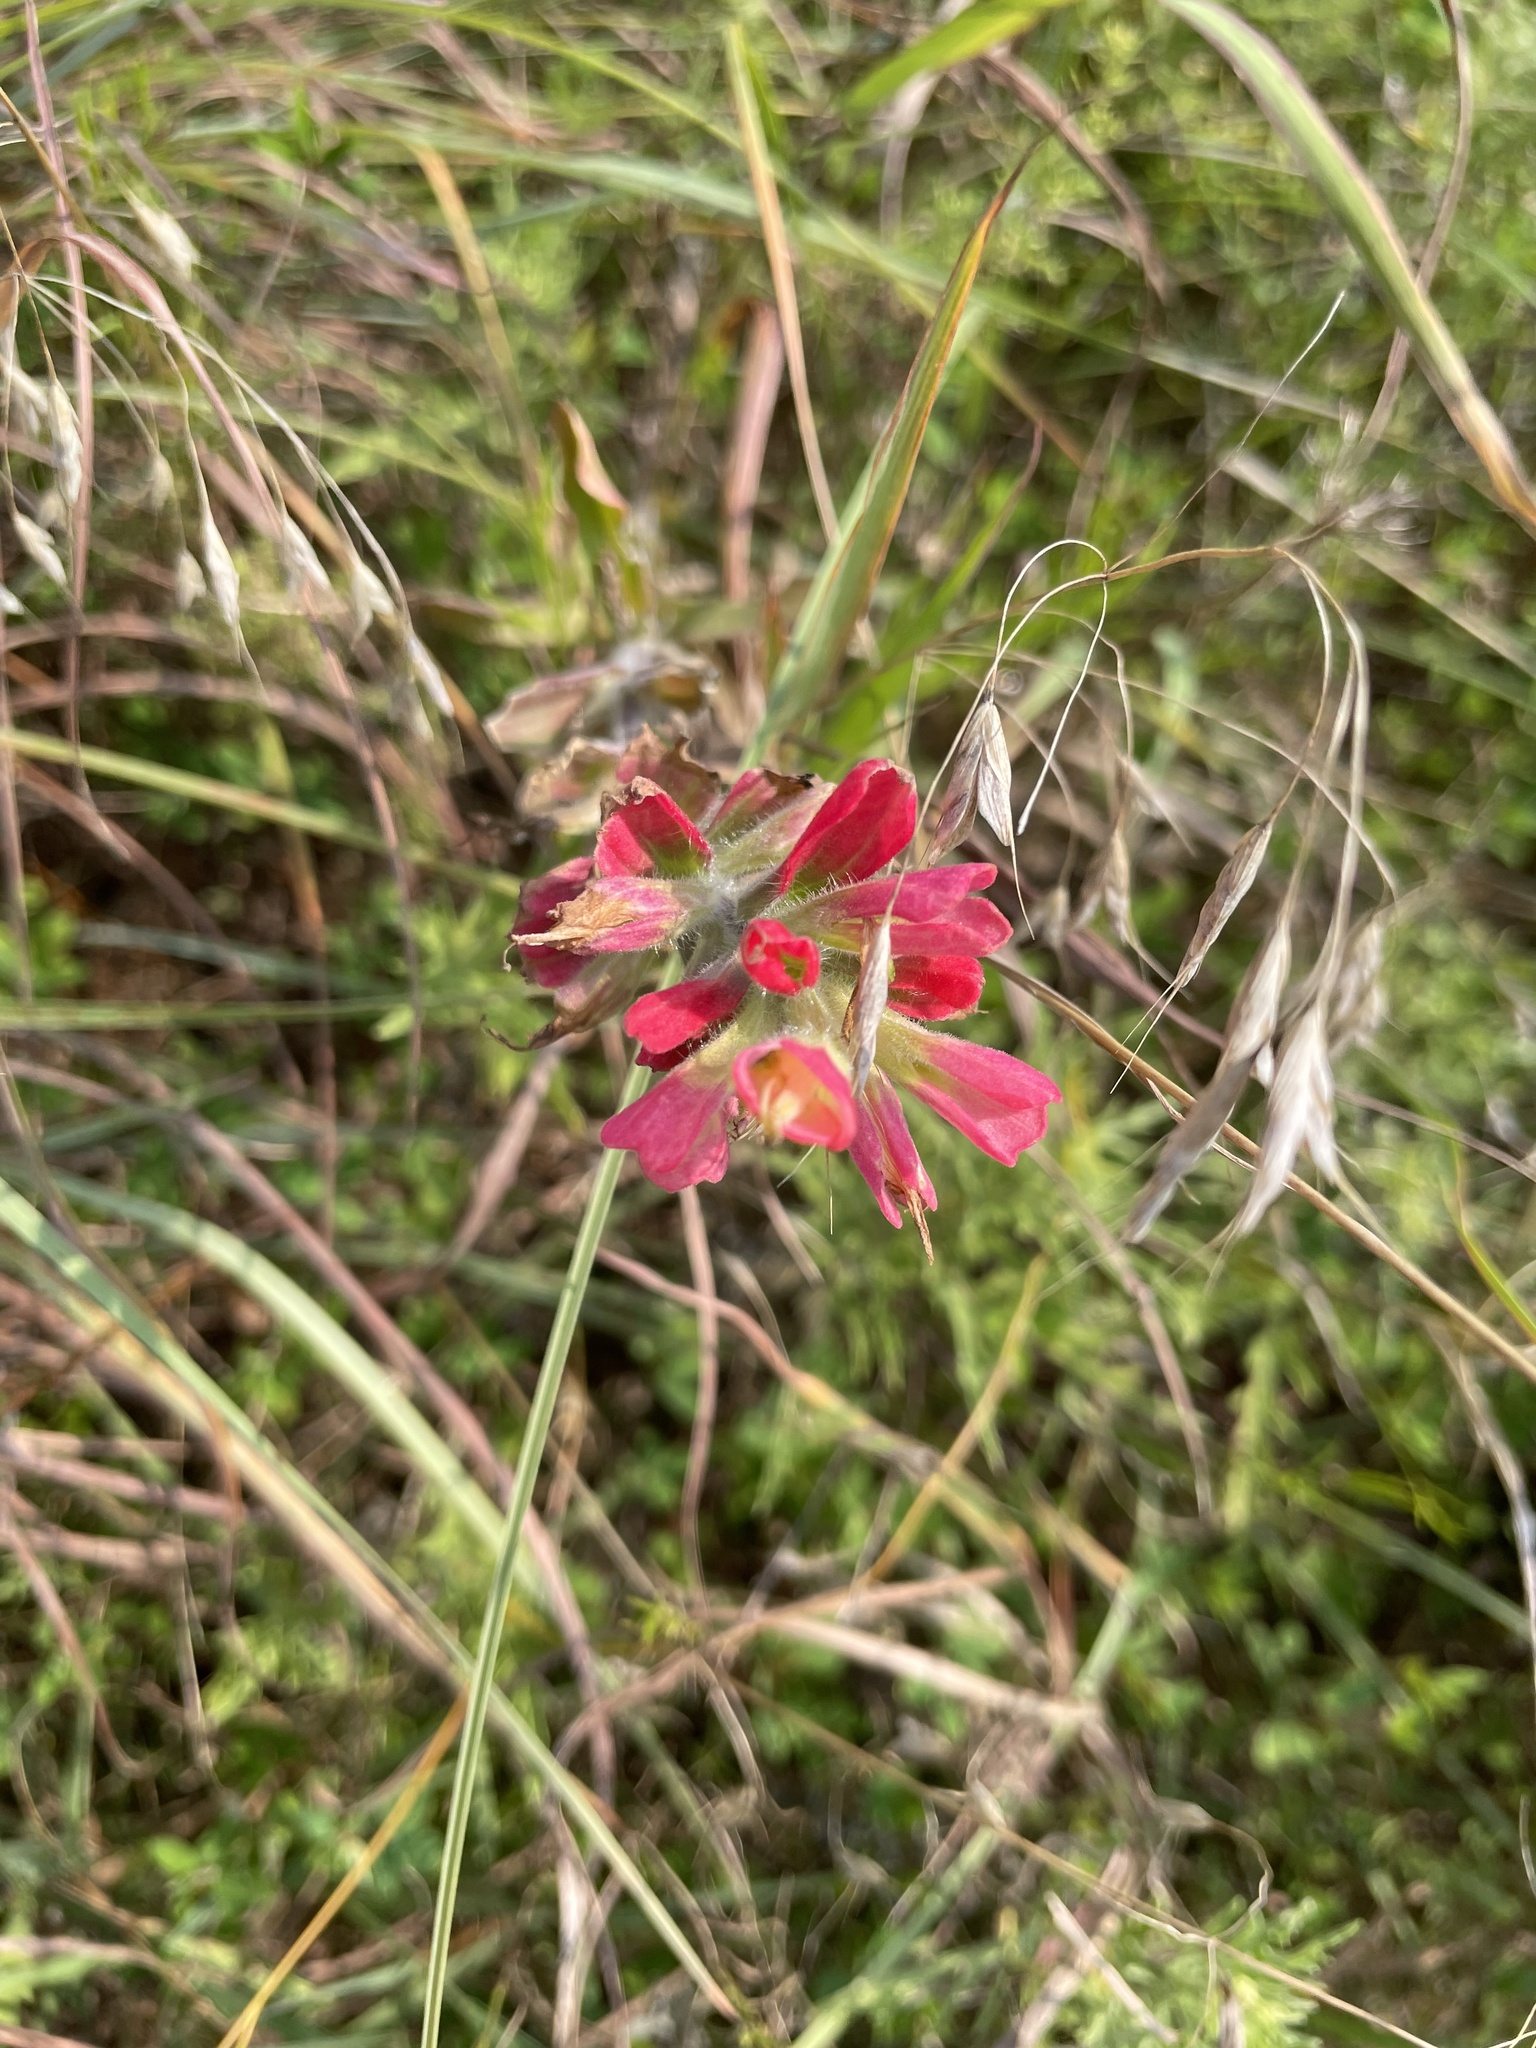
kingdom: Plantae
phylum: Tracheophyta
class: Magnoliopsida
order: Lamiales
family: Orobanchaceae
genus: Castilleja
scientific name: Castilleja indivisa
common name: Texas paintbrush
